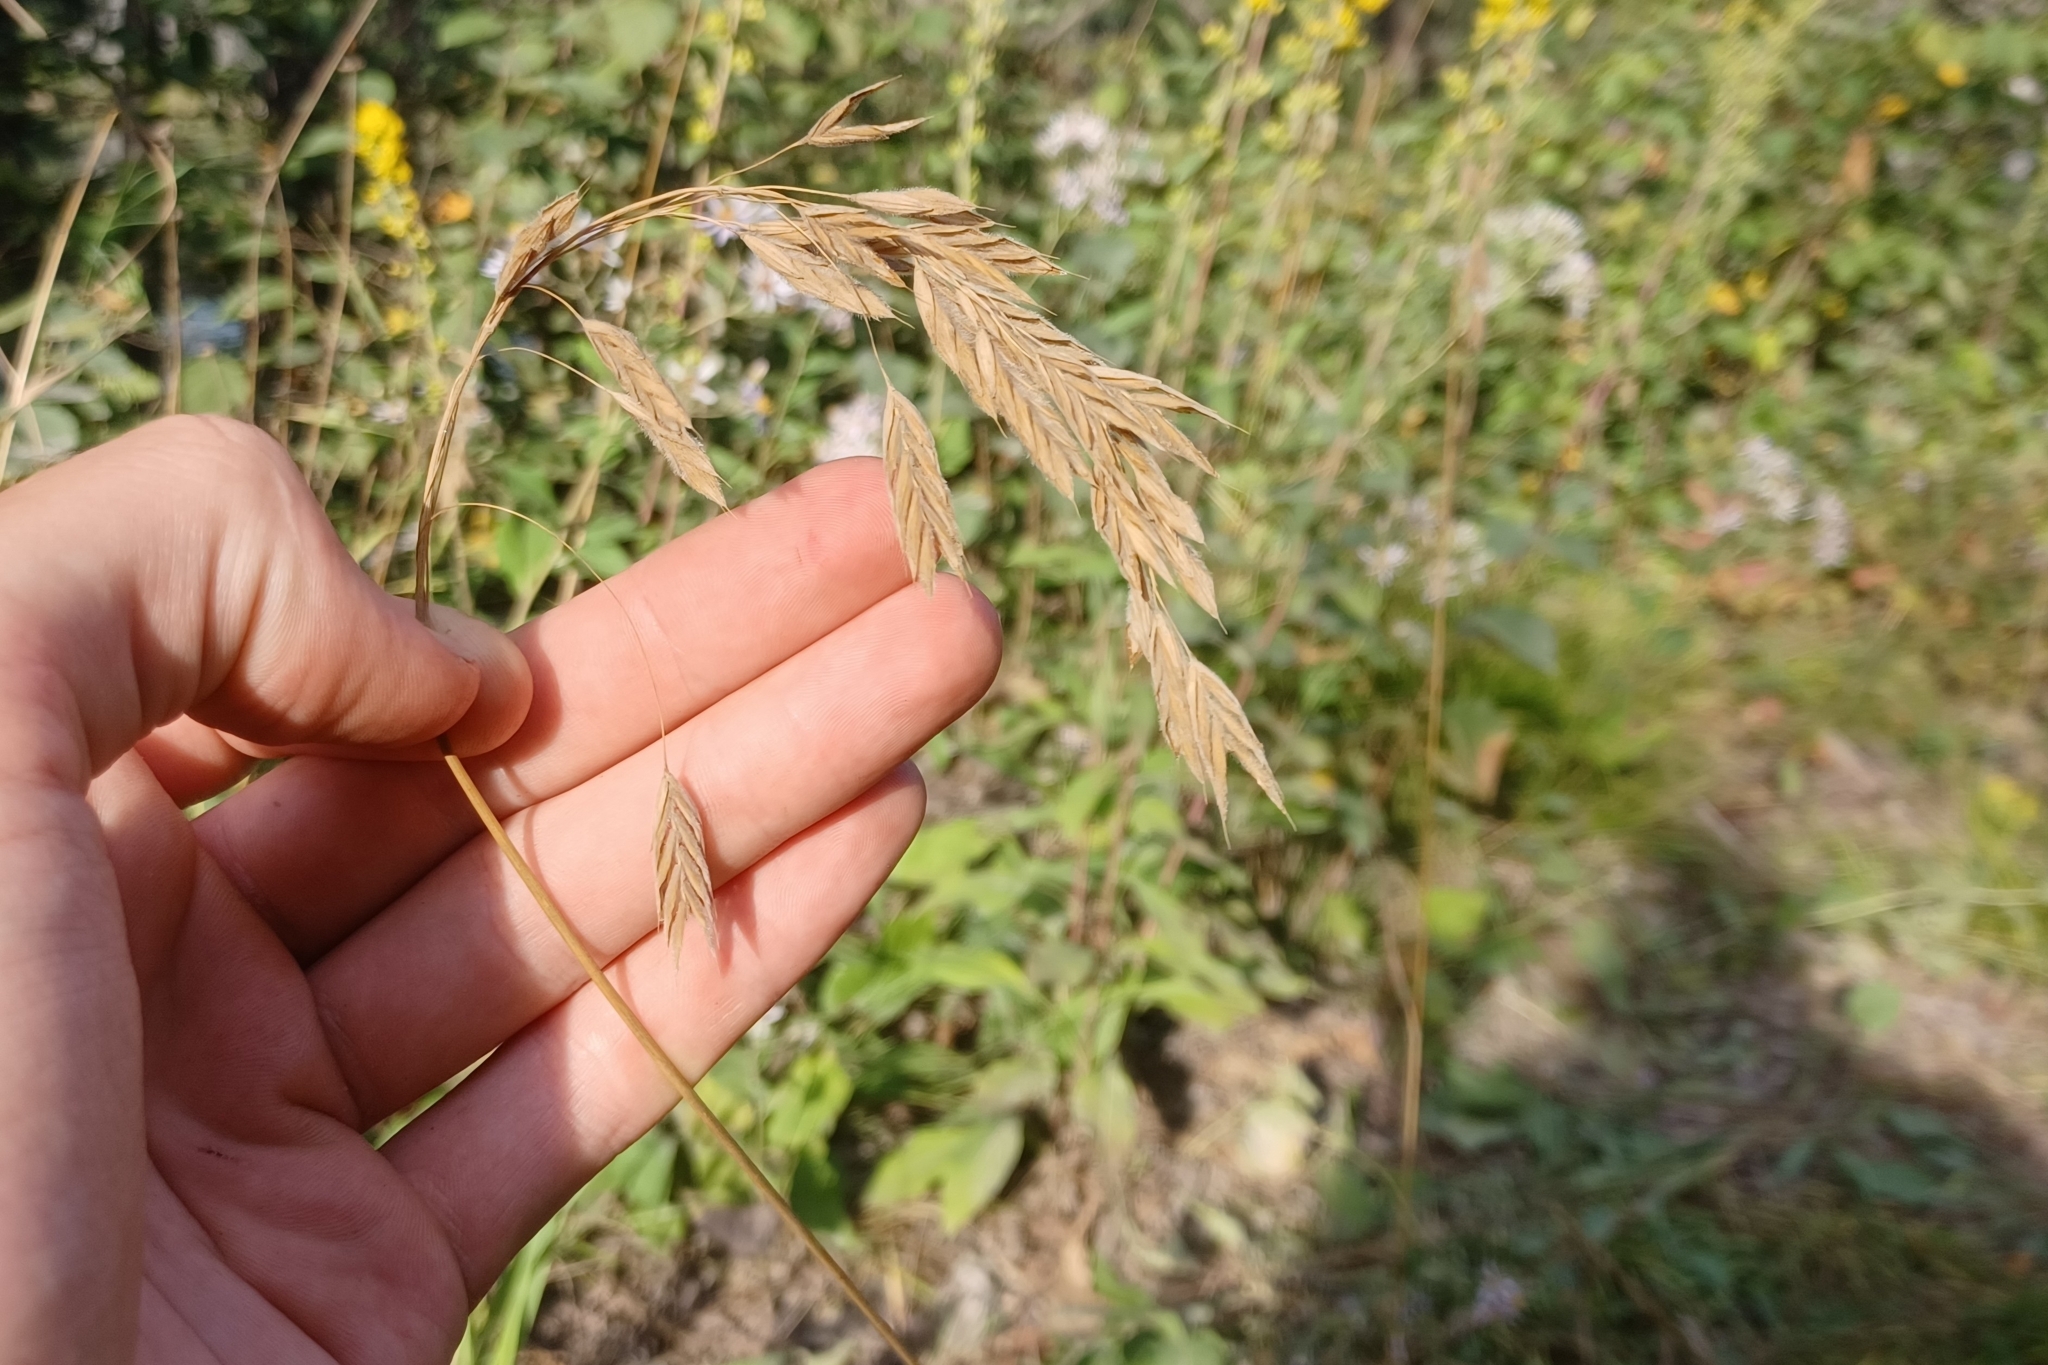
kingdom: Plantae
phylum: Tracheophyta
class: Liliopsida
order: Poales
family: Poaceae
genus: Bromus
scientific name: Bromus kalmii
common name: Kalm brome
